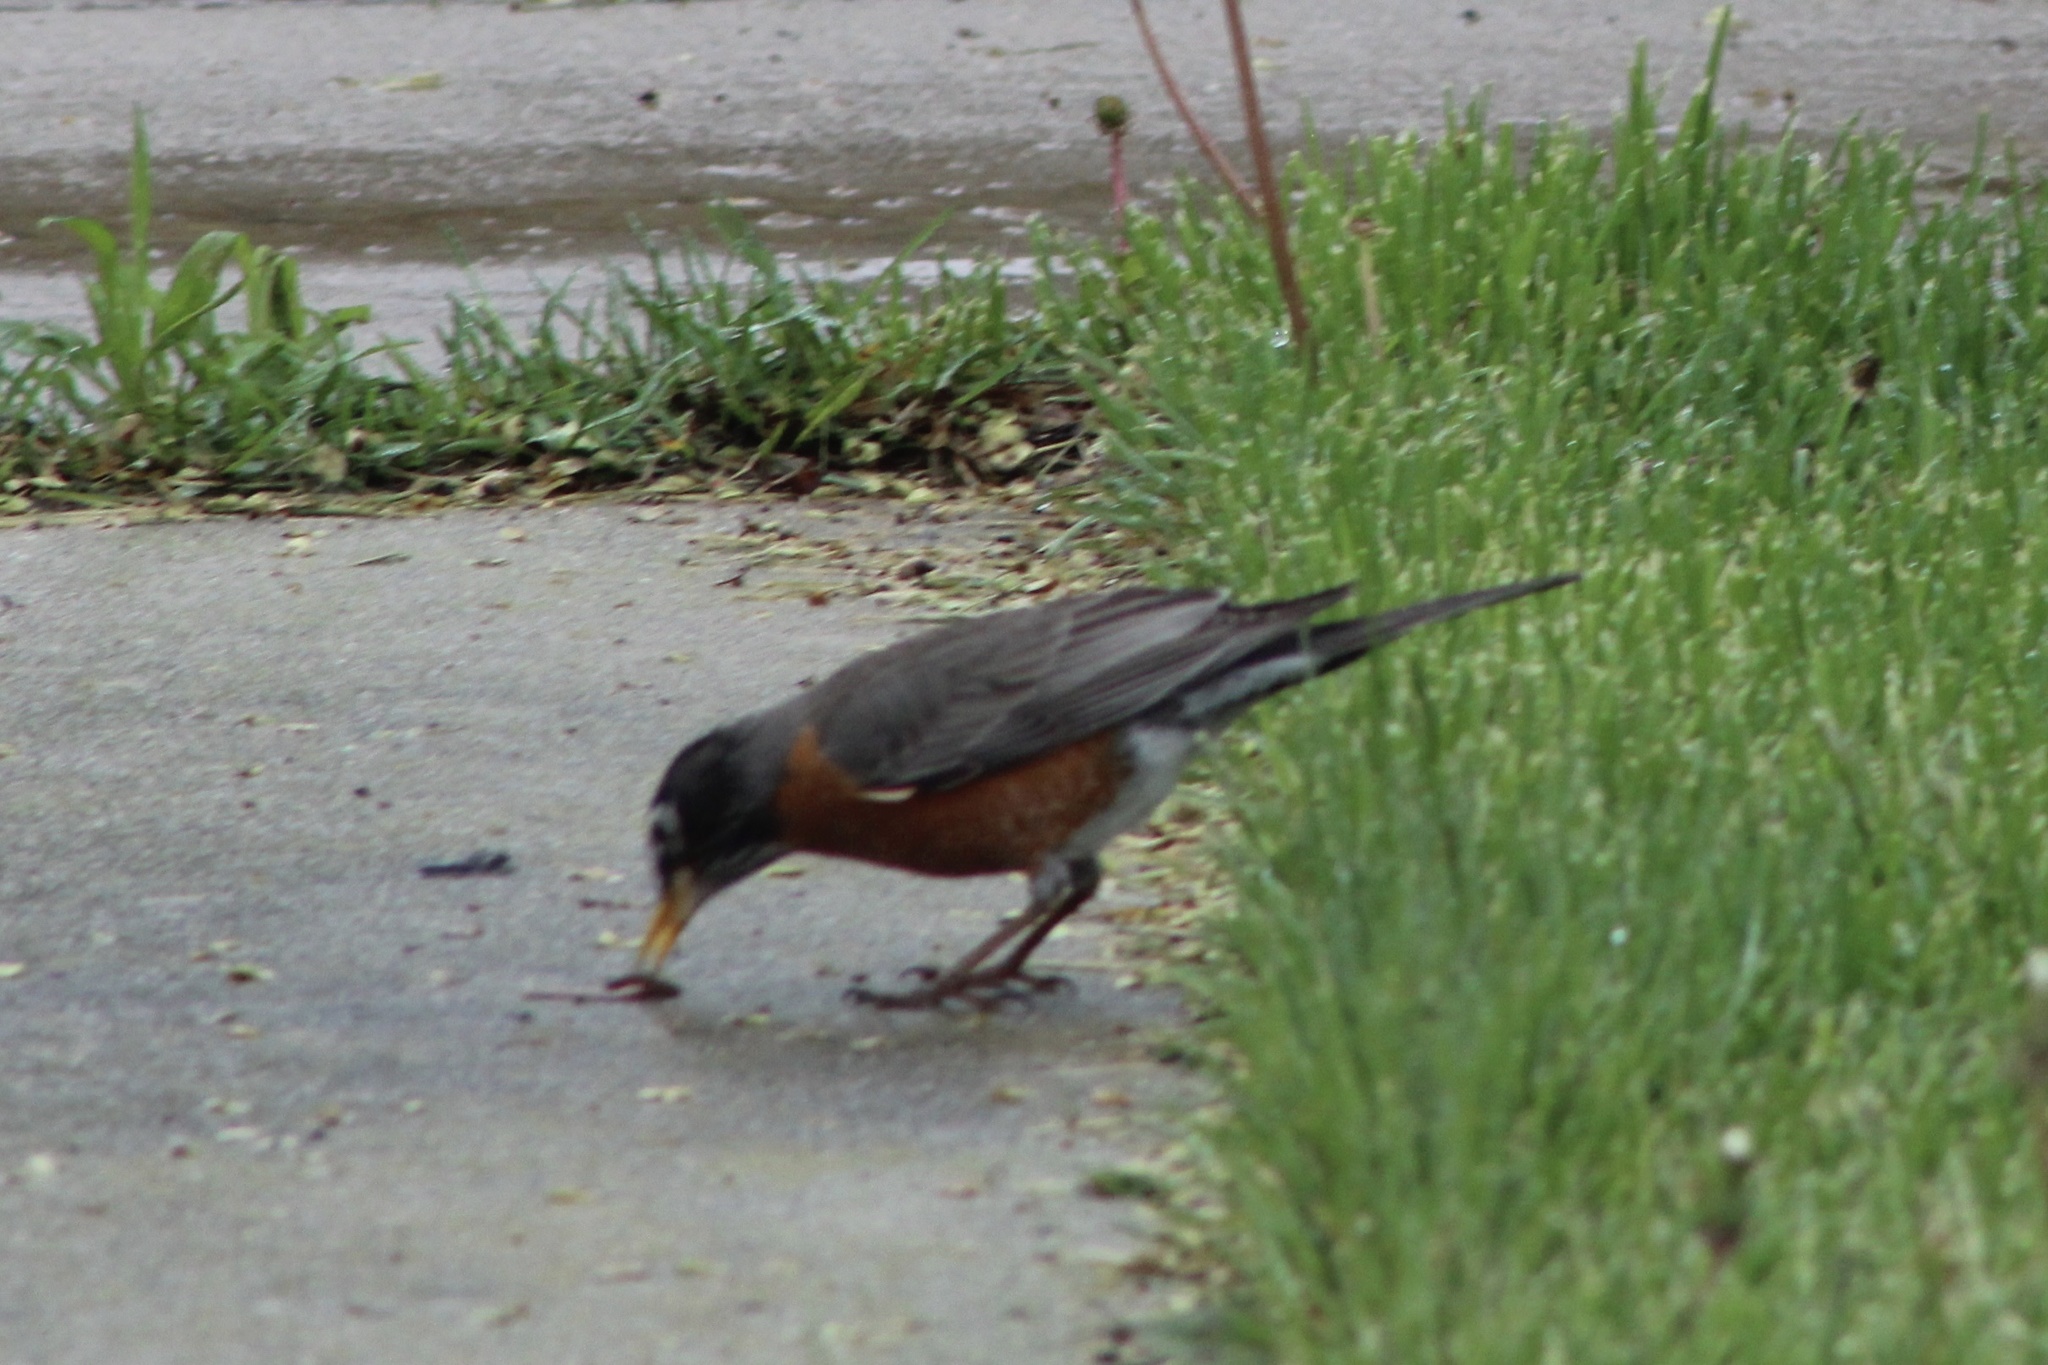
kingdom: Animalia
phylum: Chordata
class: Aves
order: Passeriformes
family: Turdidae
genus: Turdus
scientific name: Turdus migratorius
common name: American robin
